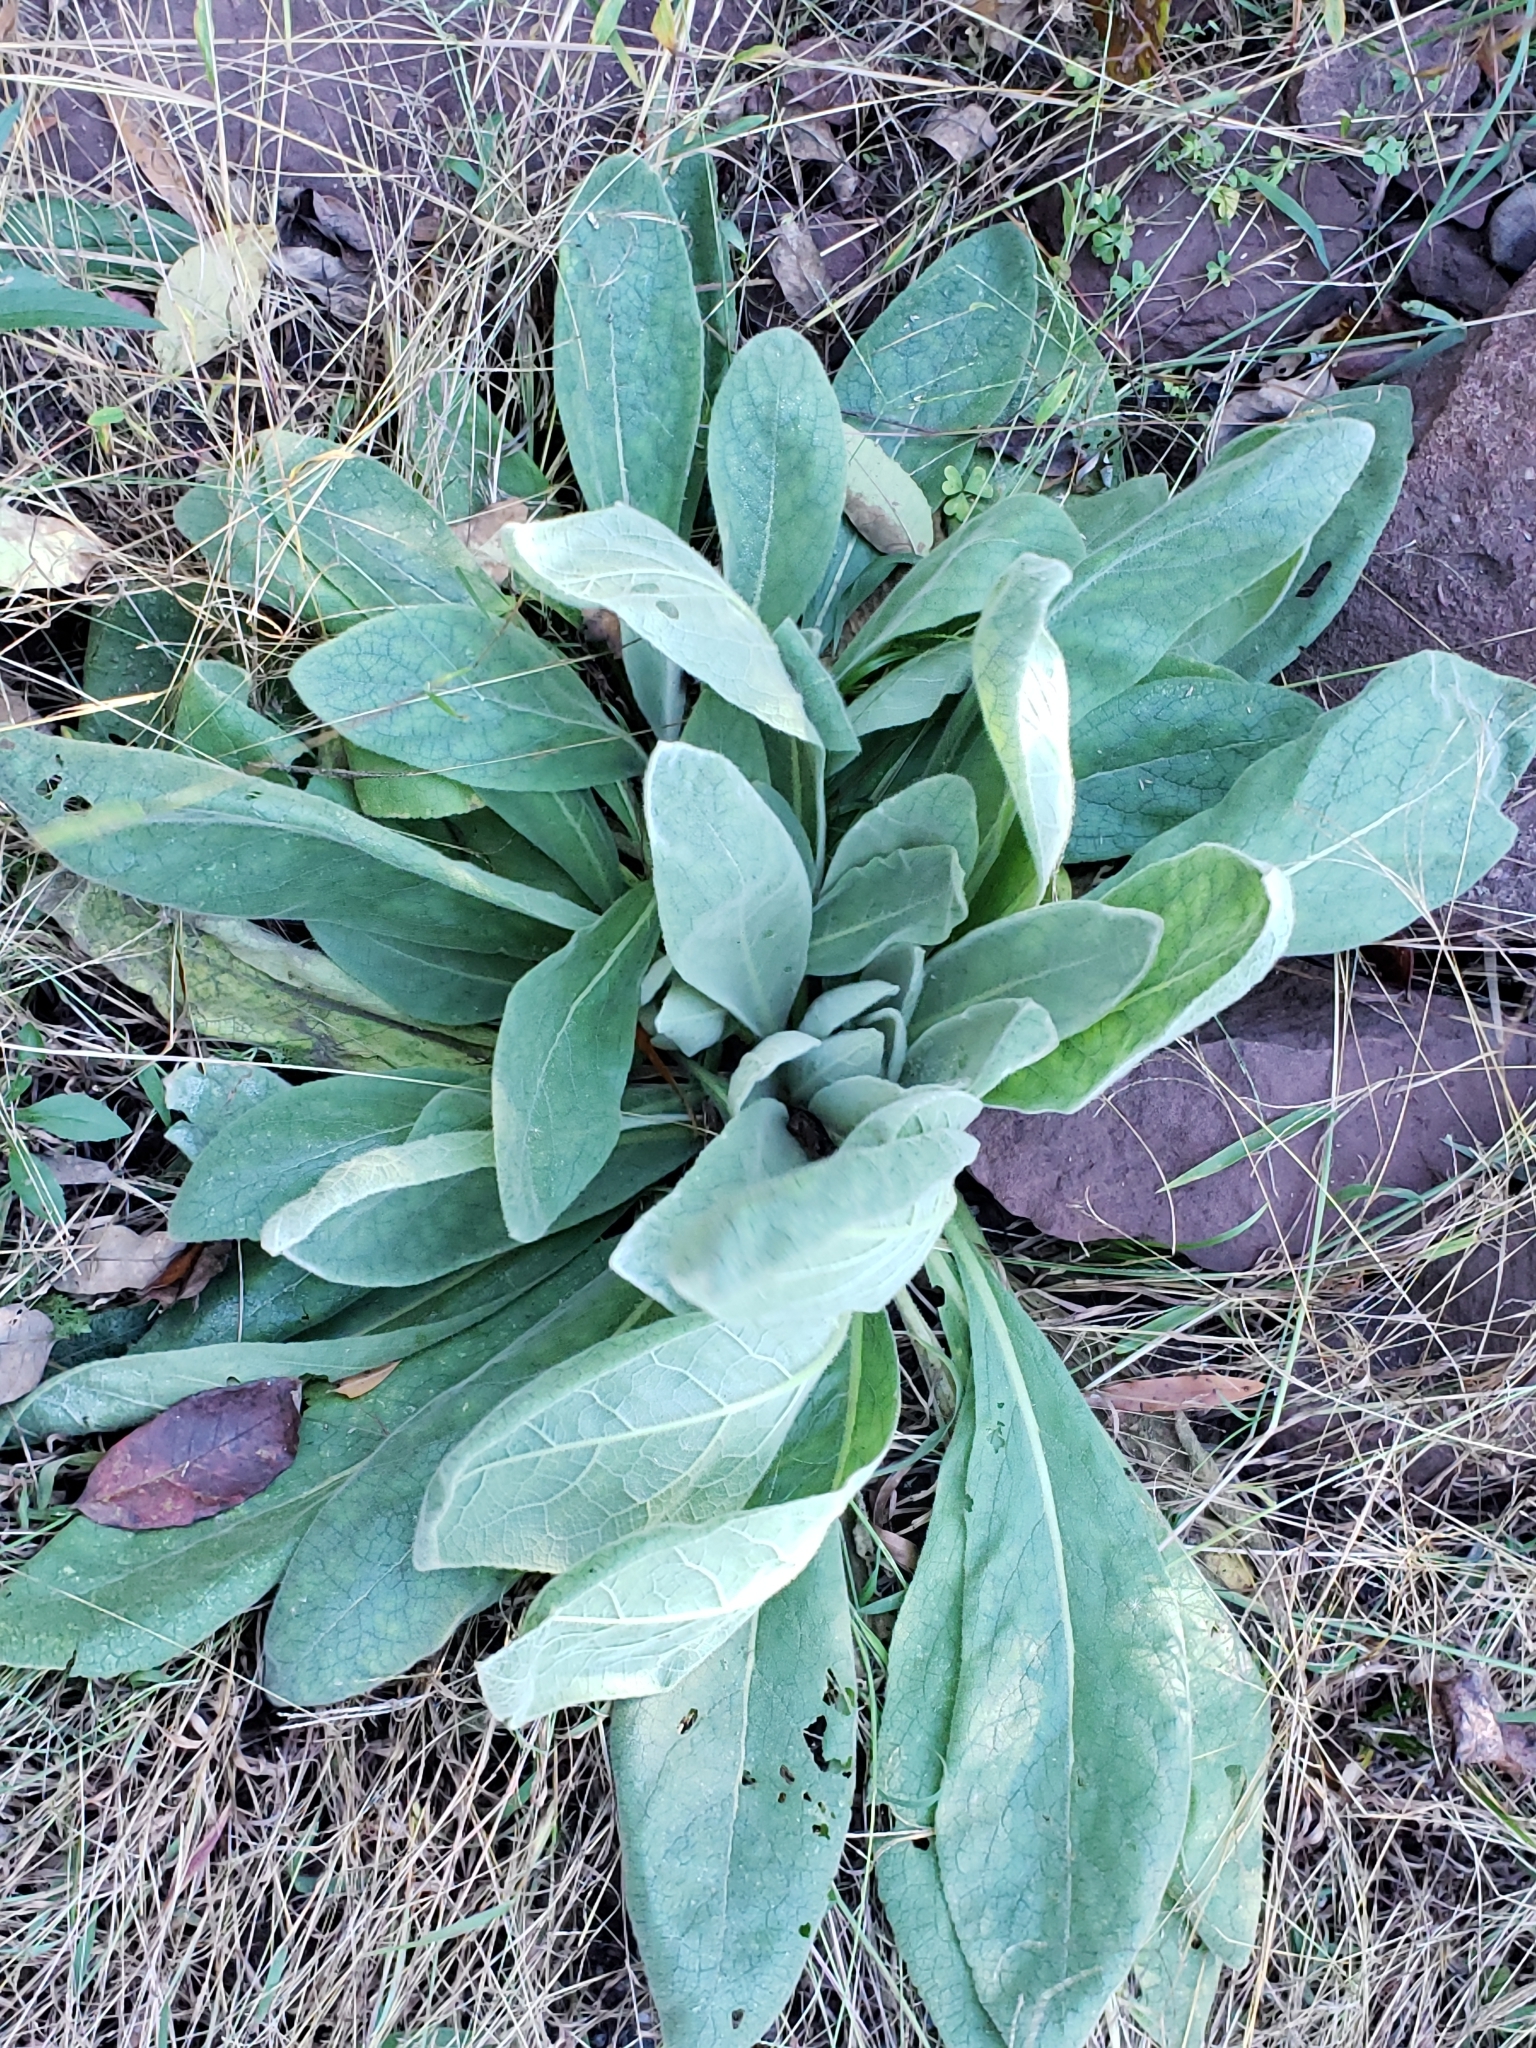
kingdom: Plantae
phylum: Tracheophyta
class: Magnoliopsida
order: Lamiales
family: Scrophulariaceae
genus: Verbascum
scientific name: Verbascum thapsus
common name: Common mullein
